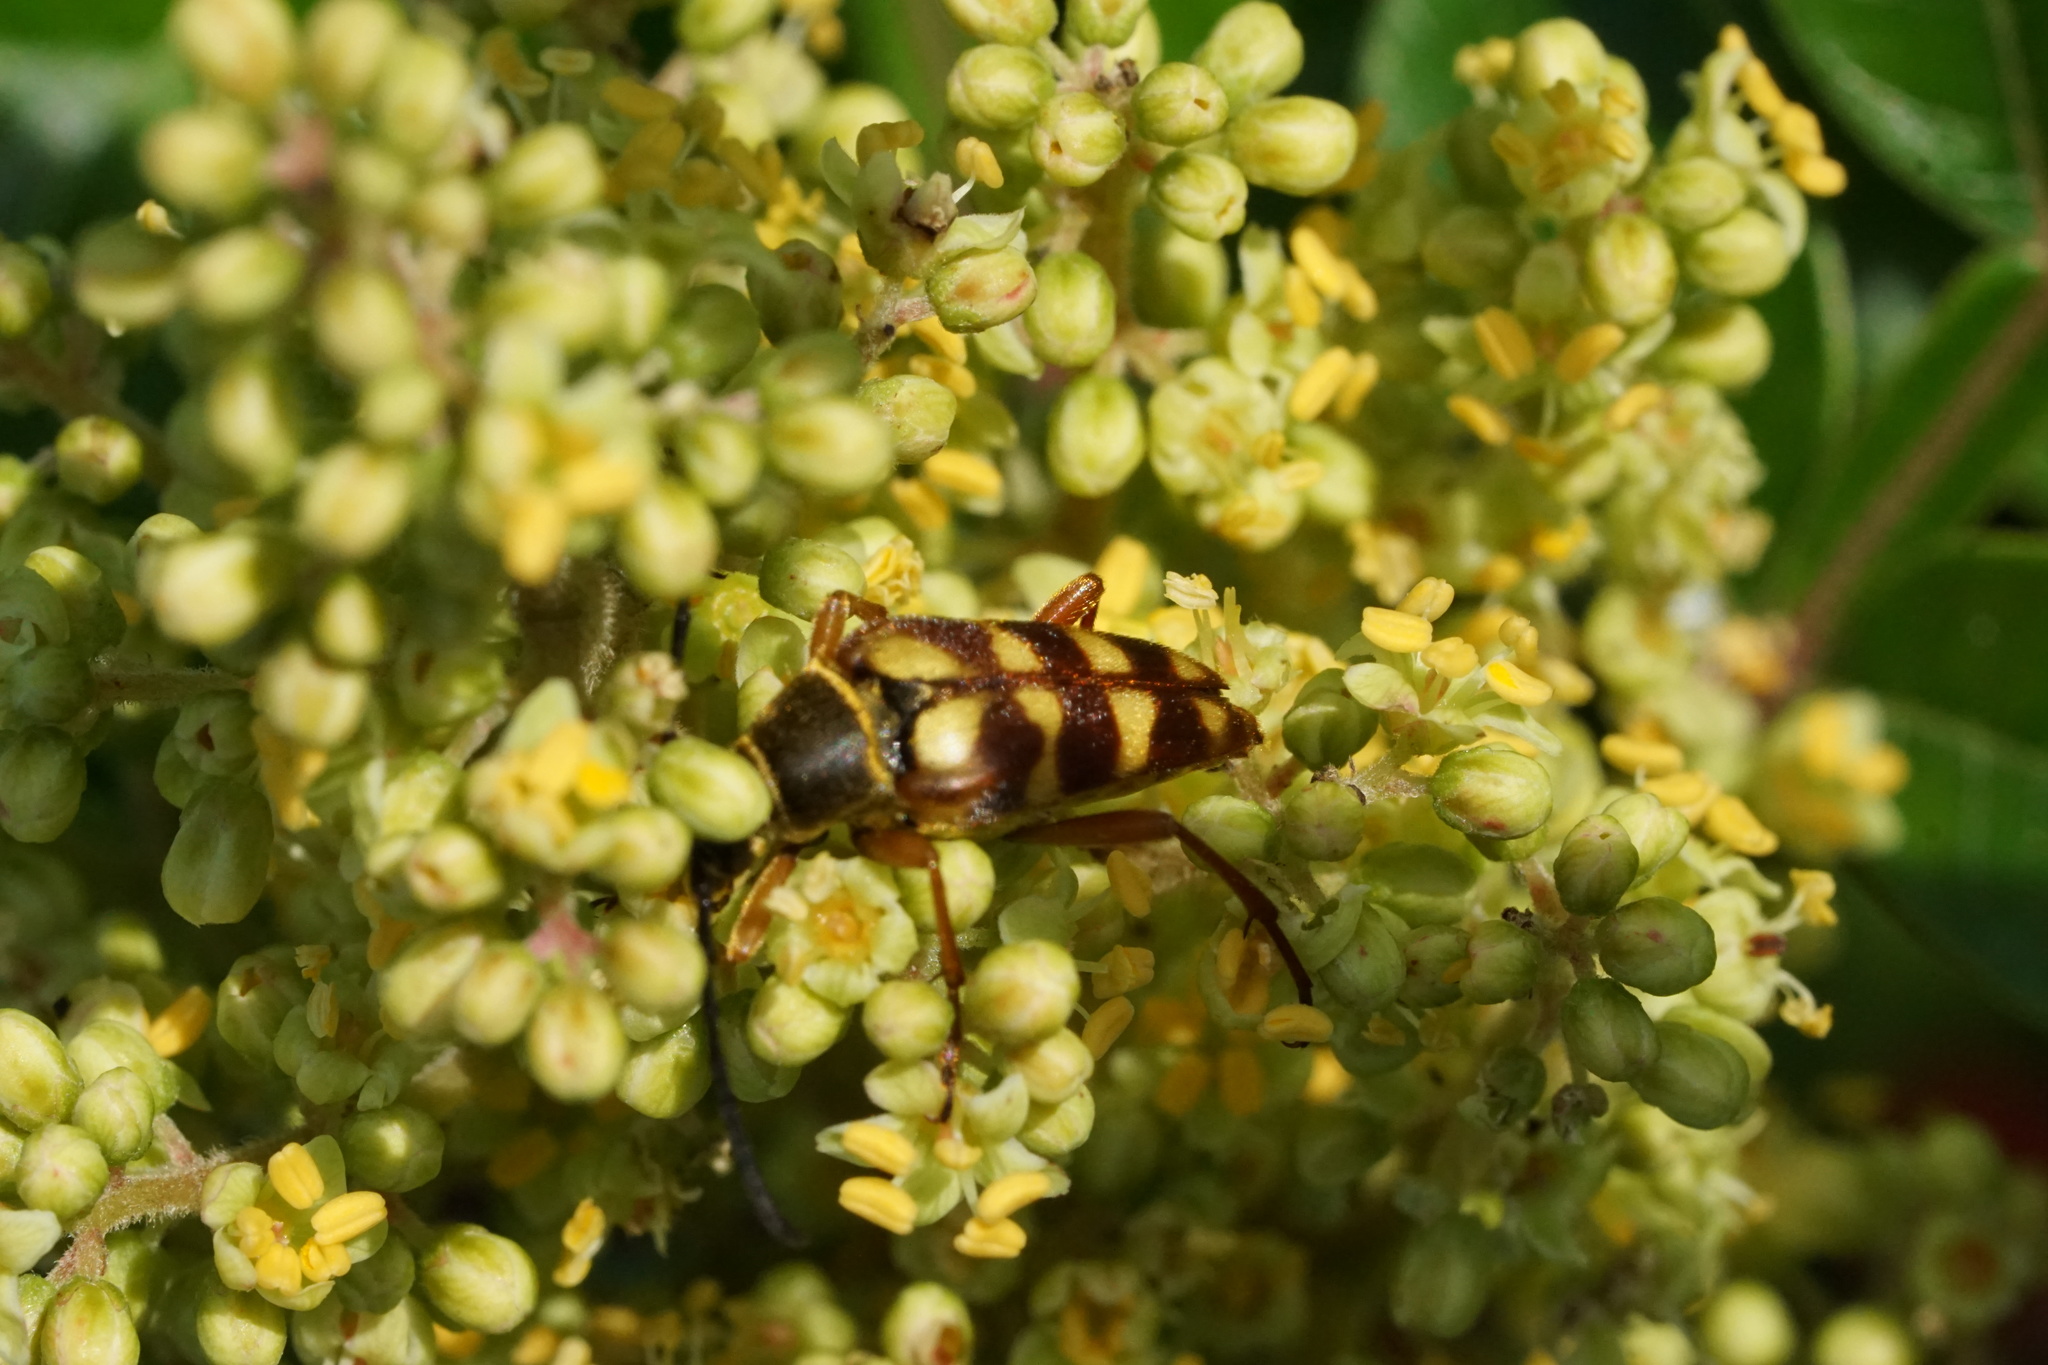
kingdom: Animalia
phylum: Arthropoda
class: Insecta
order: Coleoptera
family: Cerambycidae
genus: Typocerus
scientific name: Typocerus velutinus
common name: Banded longhorn beetle
